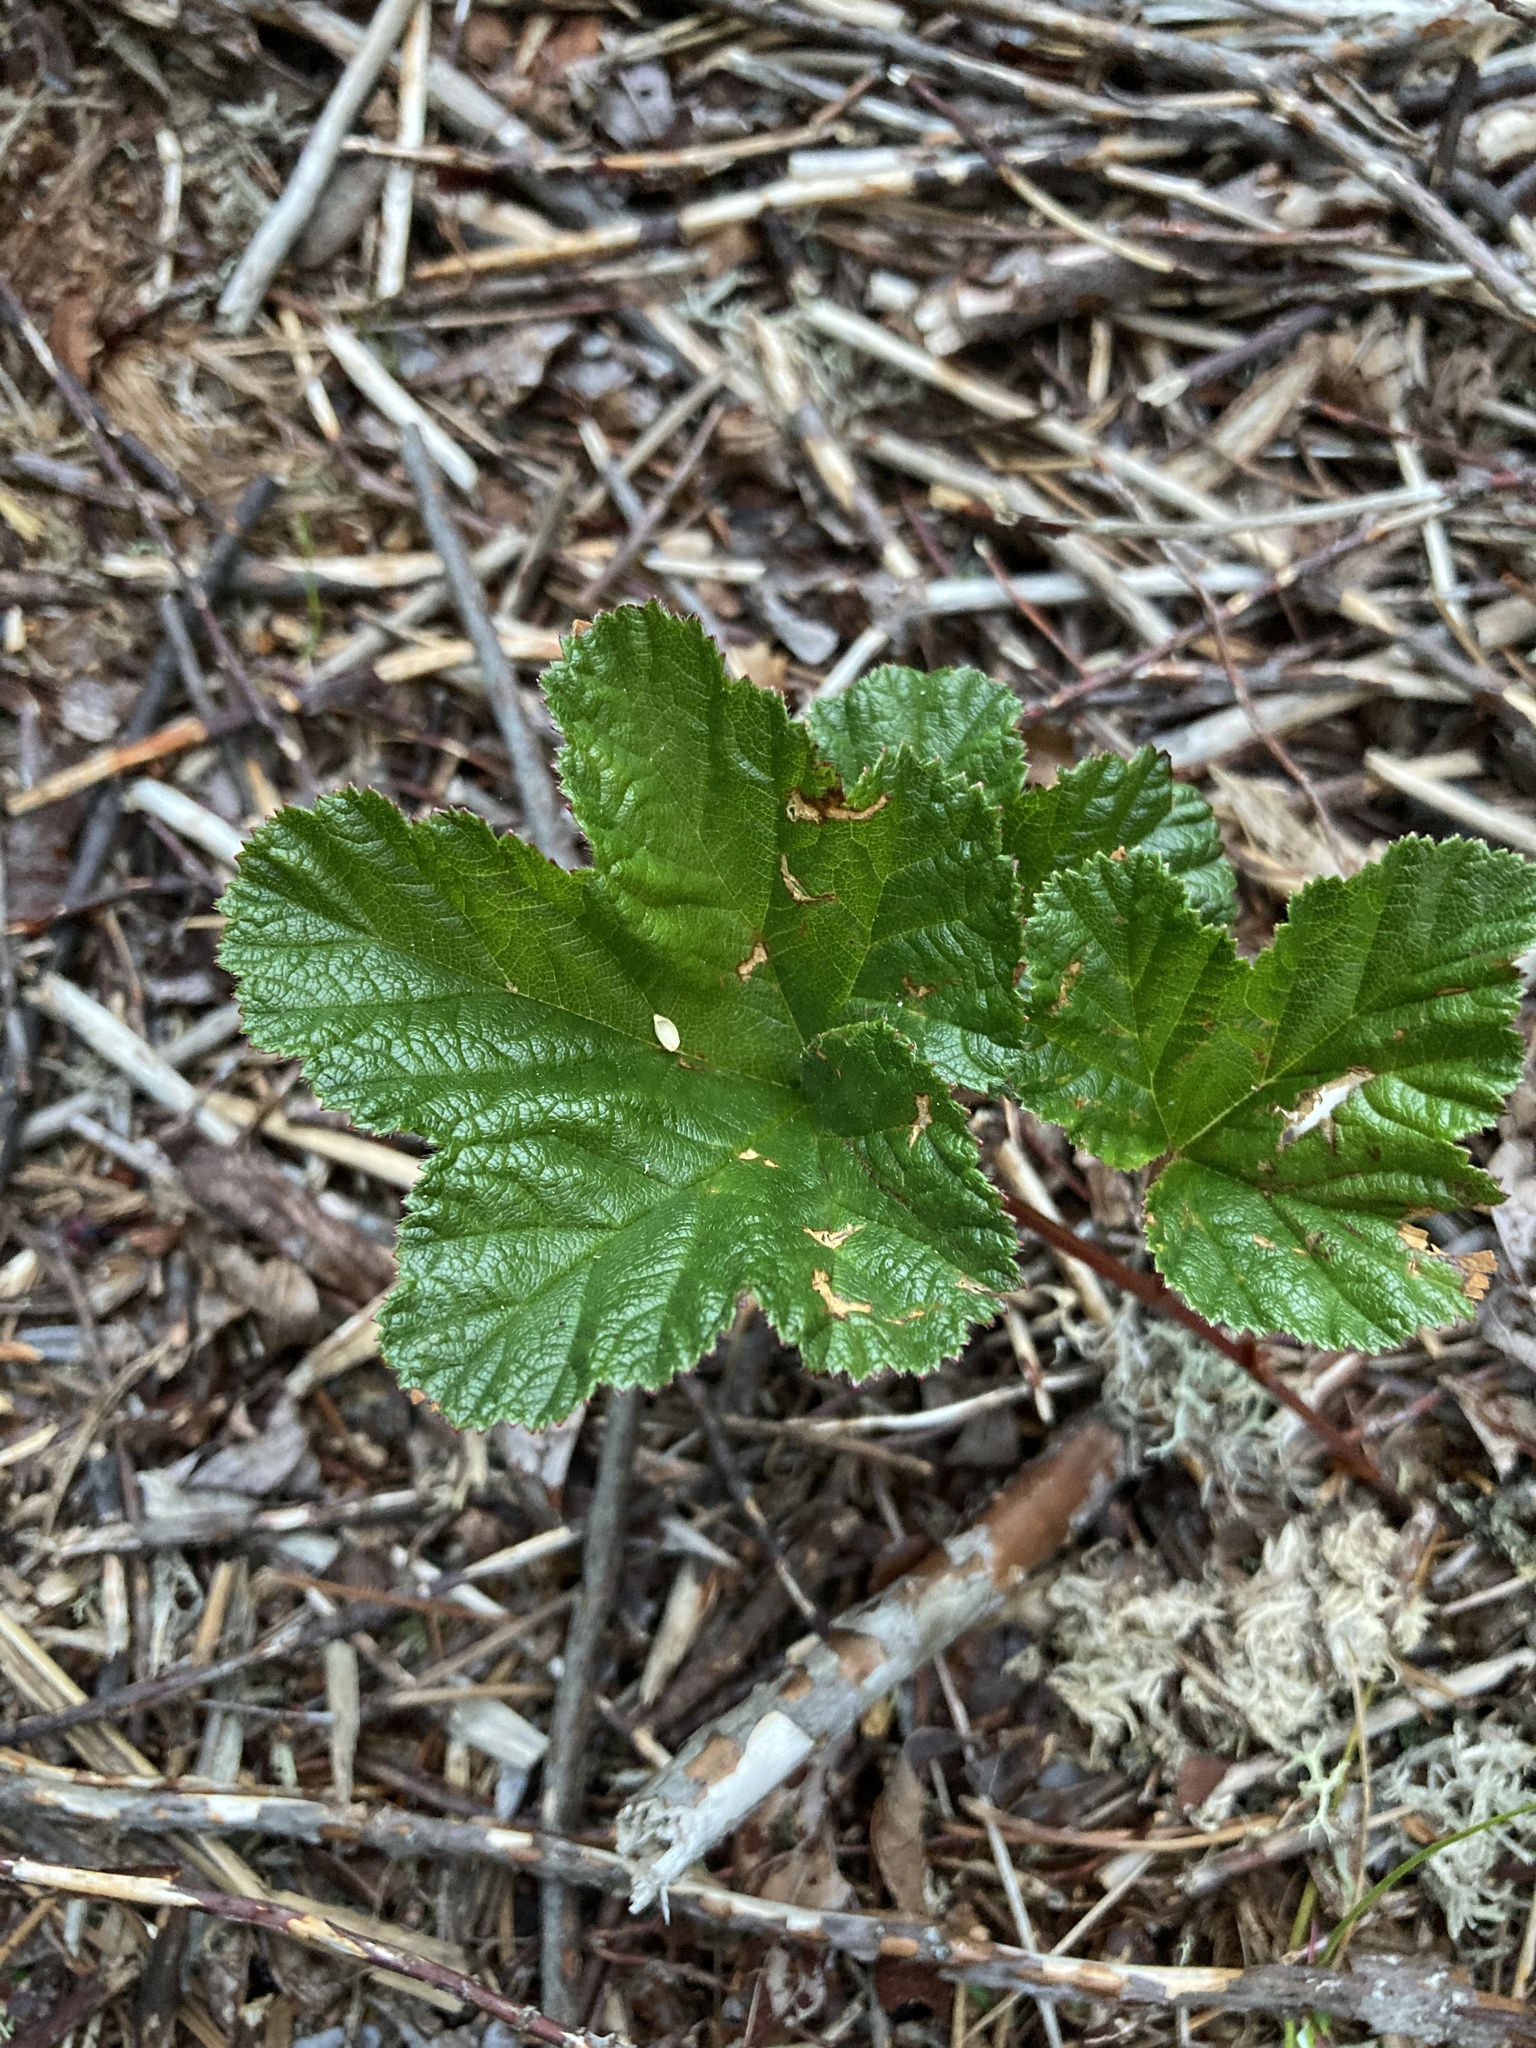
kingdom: Plantae
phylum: Tracheophyta
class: Magnoliopsida
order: Rosales
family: Rosaceae
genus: Rubus
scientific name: Rubus chamaemorus
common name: Cloudberry
